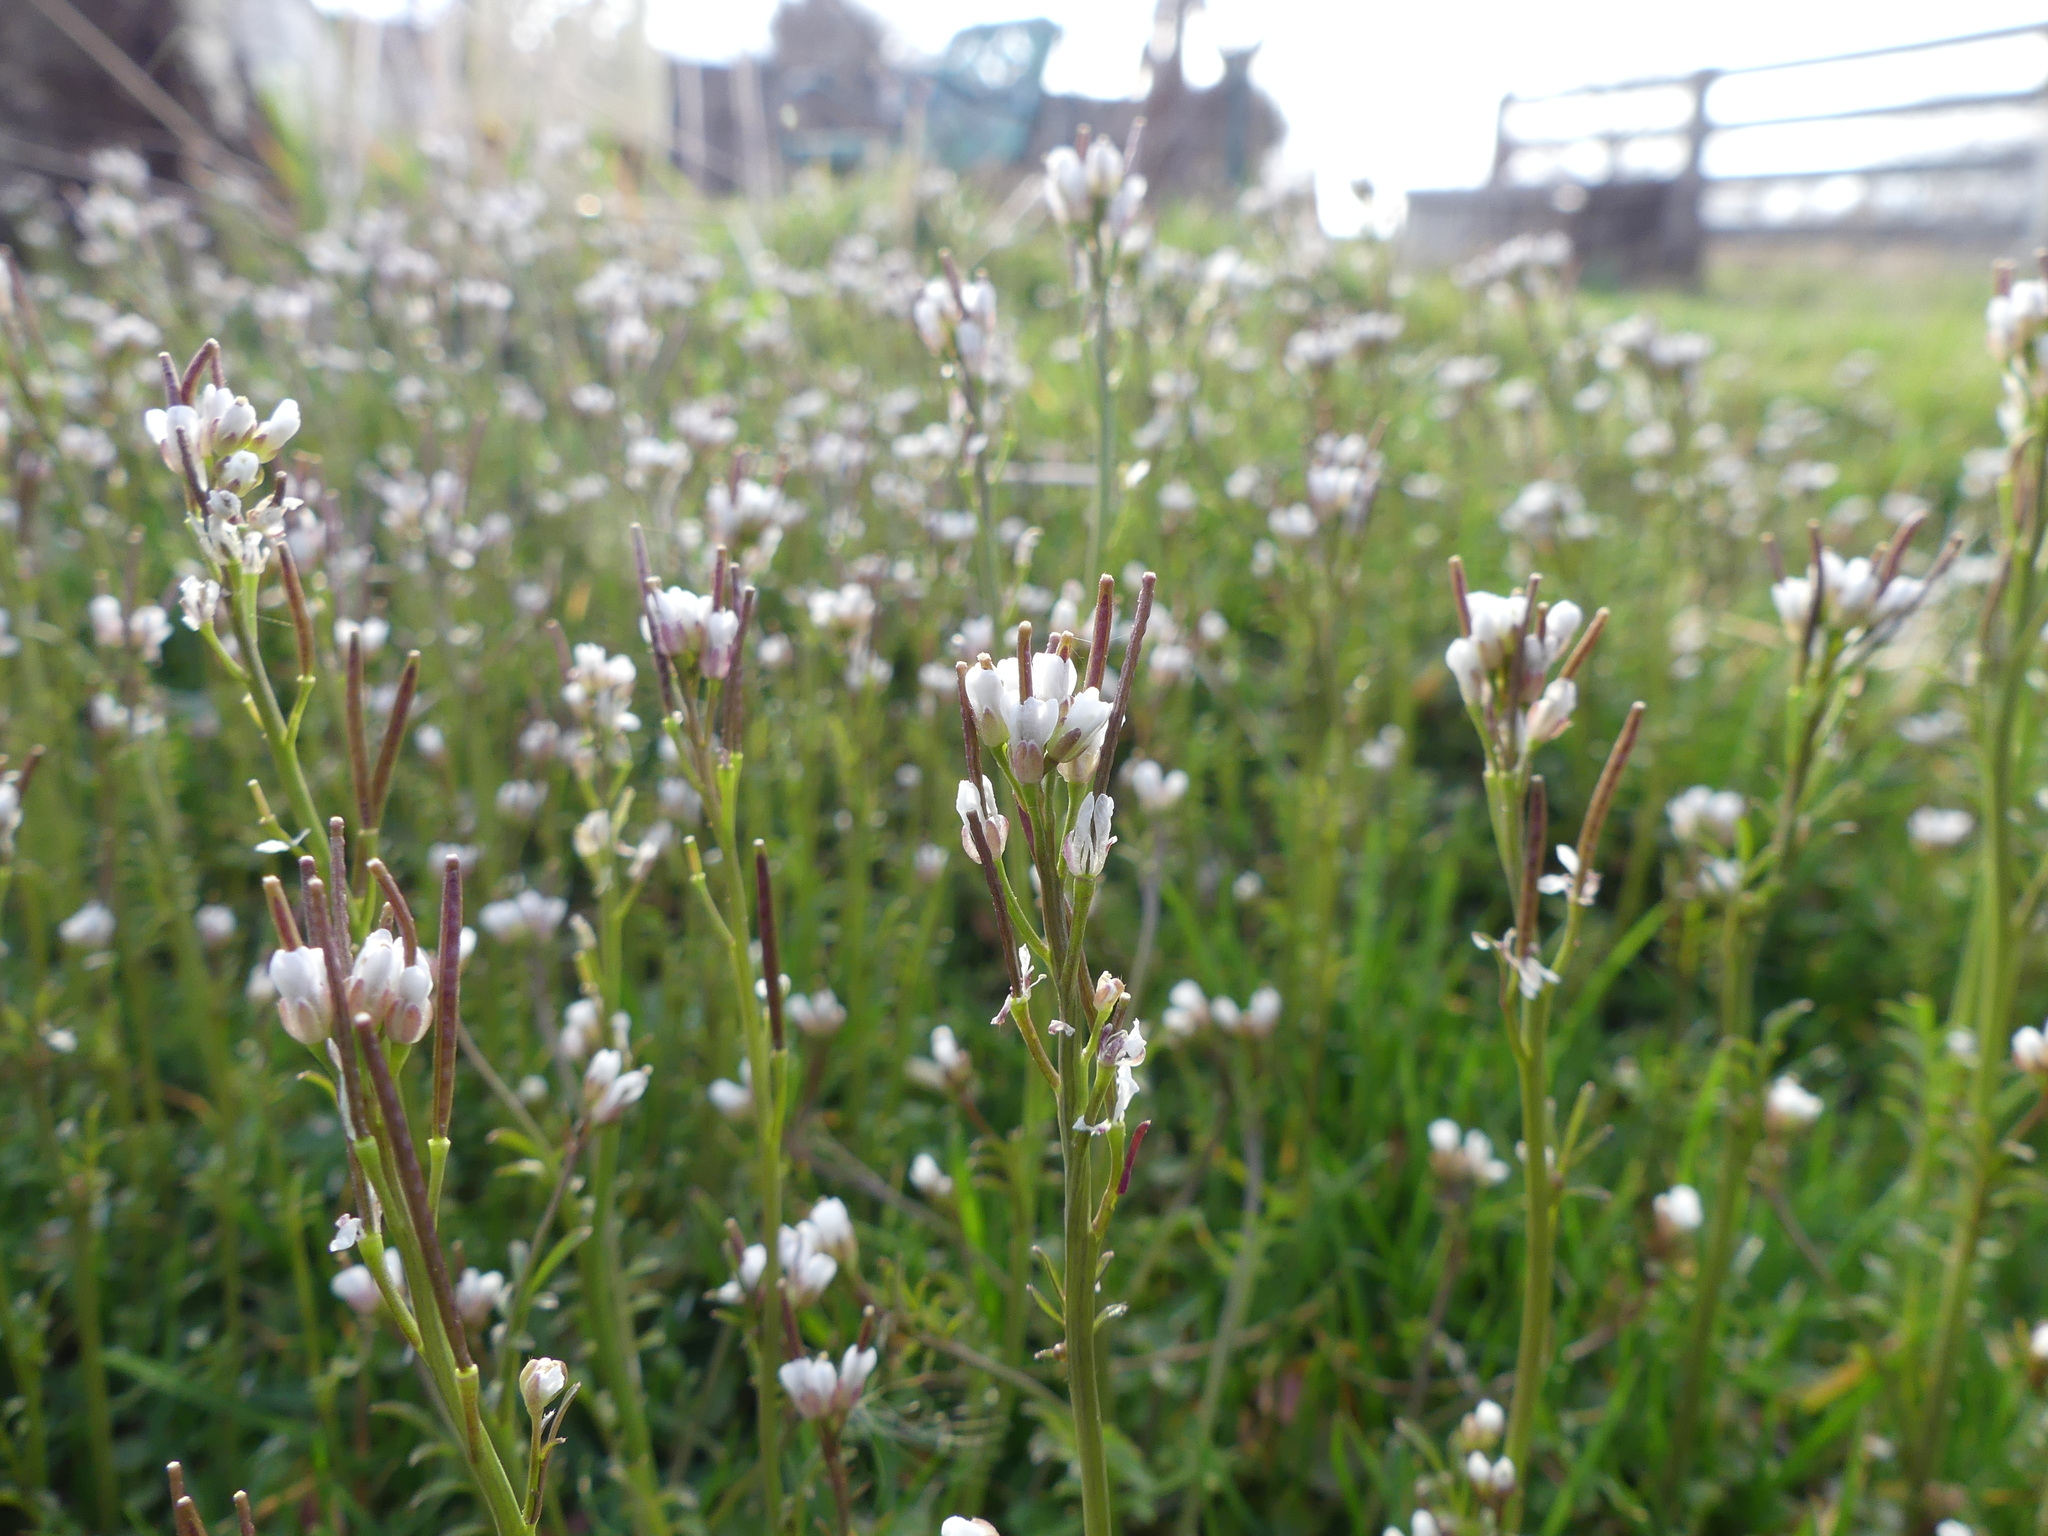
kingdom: Plantae
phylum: Tracheophyta
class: Magnoliopsida
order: Brassicales
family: Brassicaceae
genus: Cardamine
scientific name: Cardamine hirsuta
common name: Hairy bittercress
